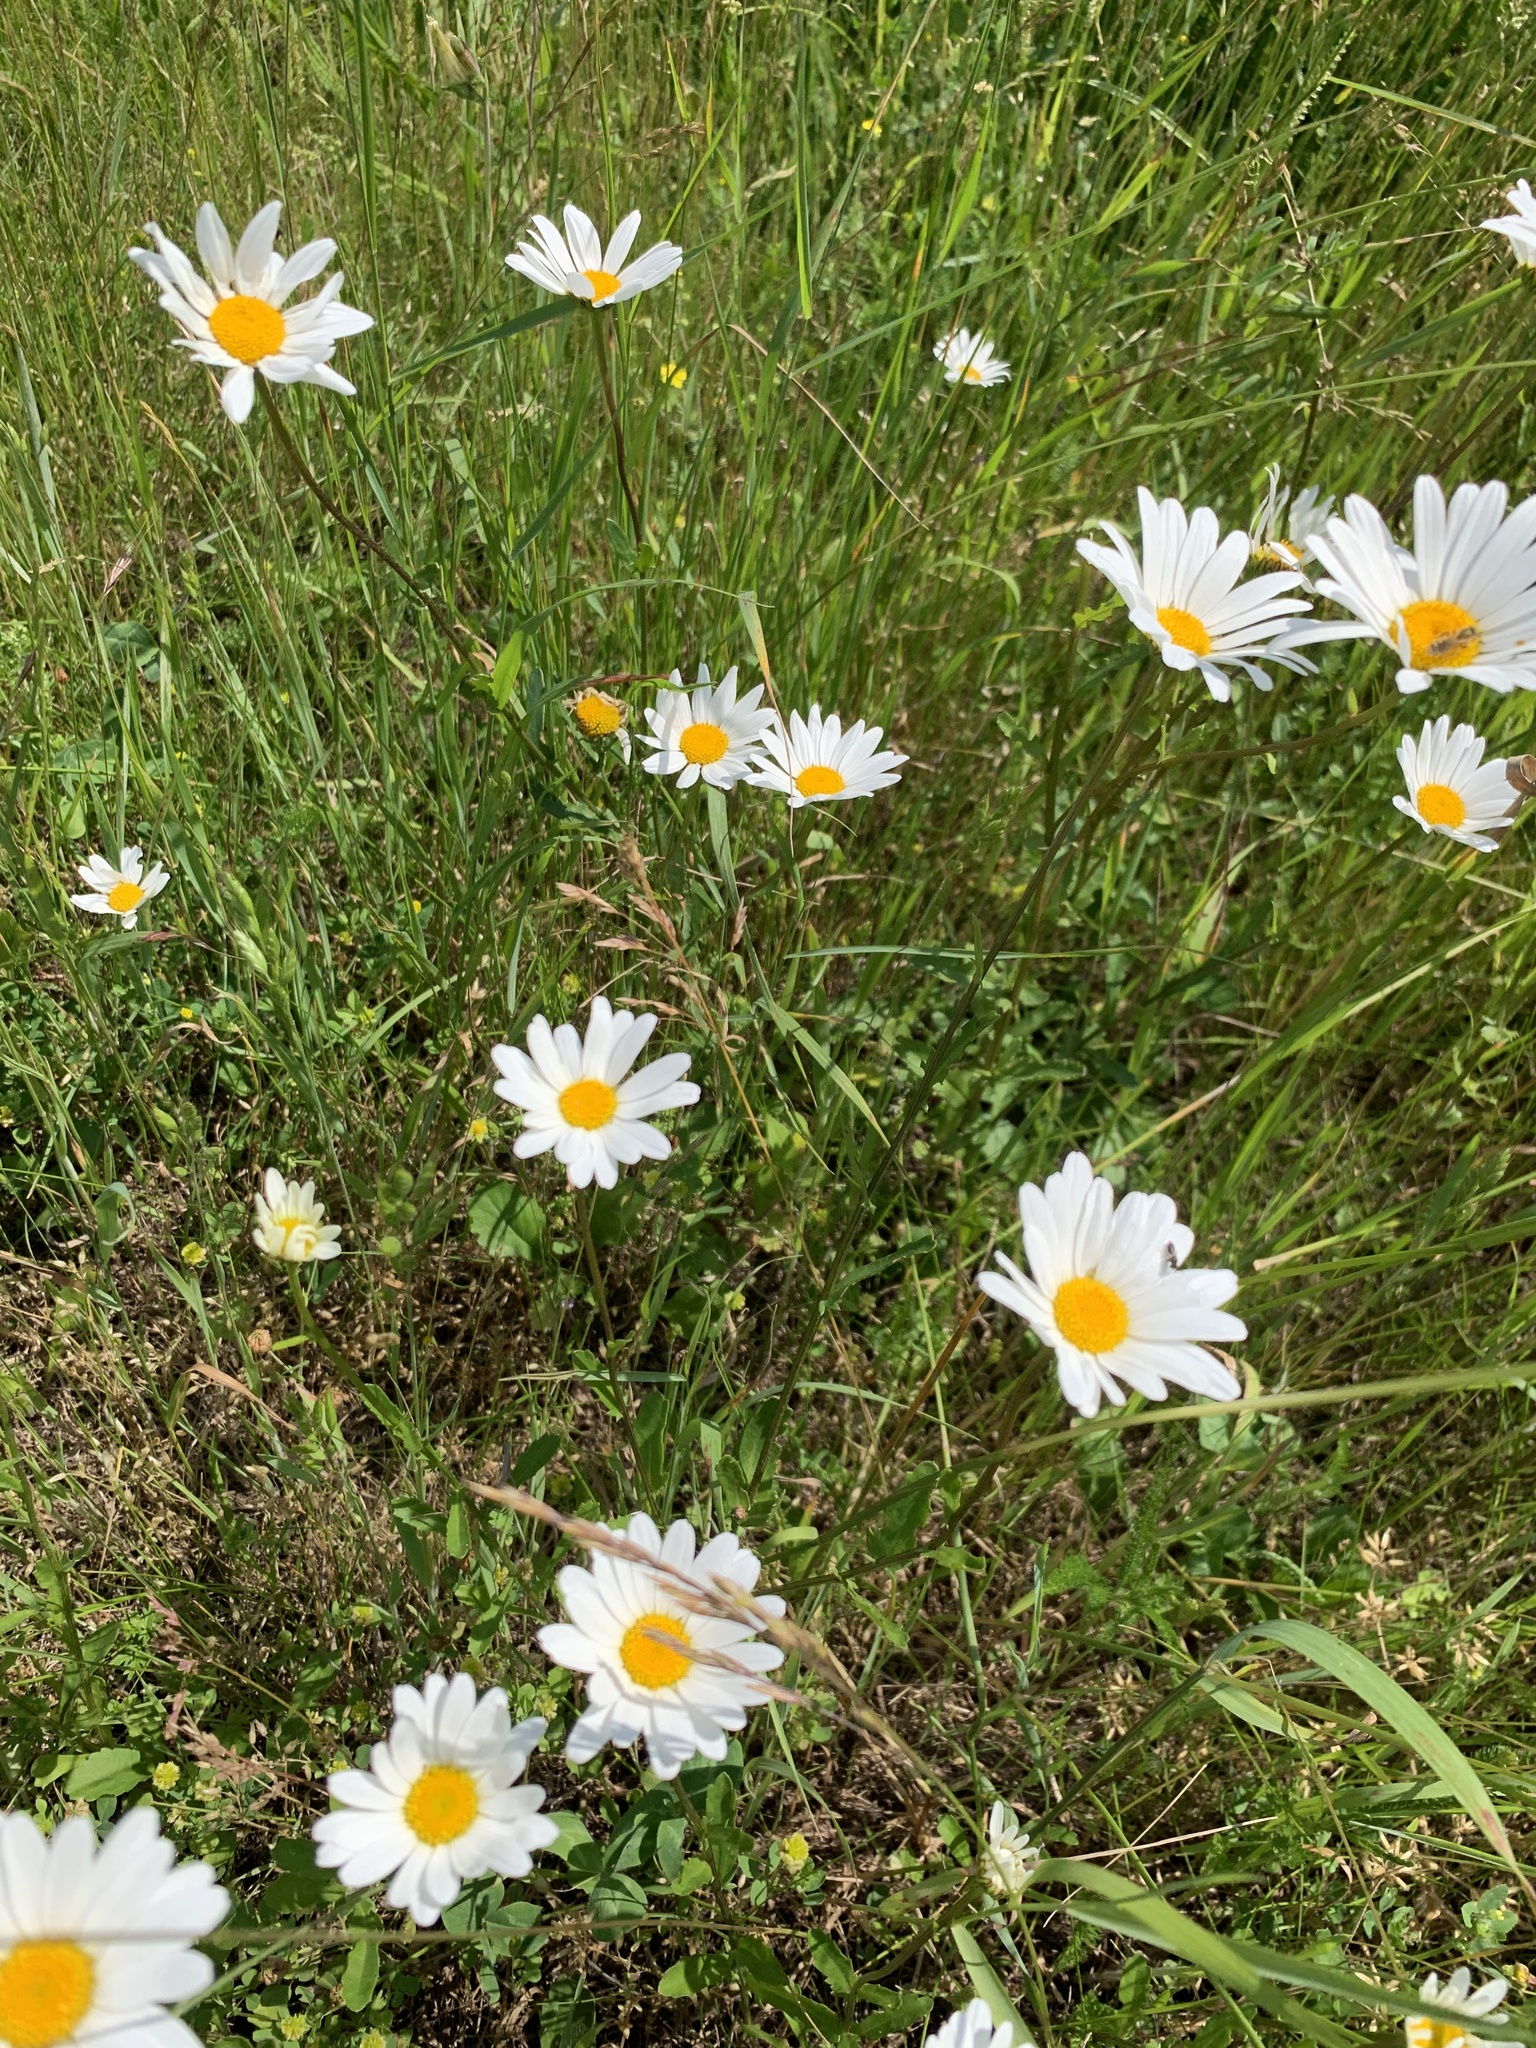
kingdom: Plantae
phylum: Tracheophyta
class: Magnoliopsida
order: Asterales
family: Asteraceae
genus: Leucanthemum
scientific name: Leucanthemum vulgare
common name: Oxeye daisy
